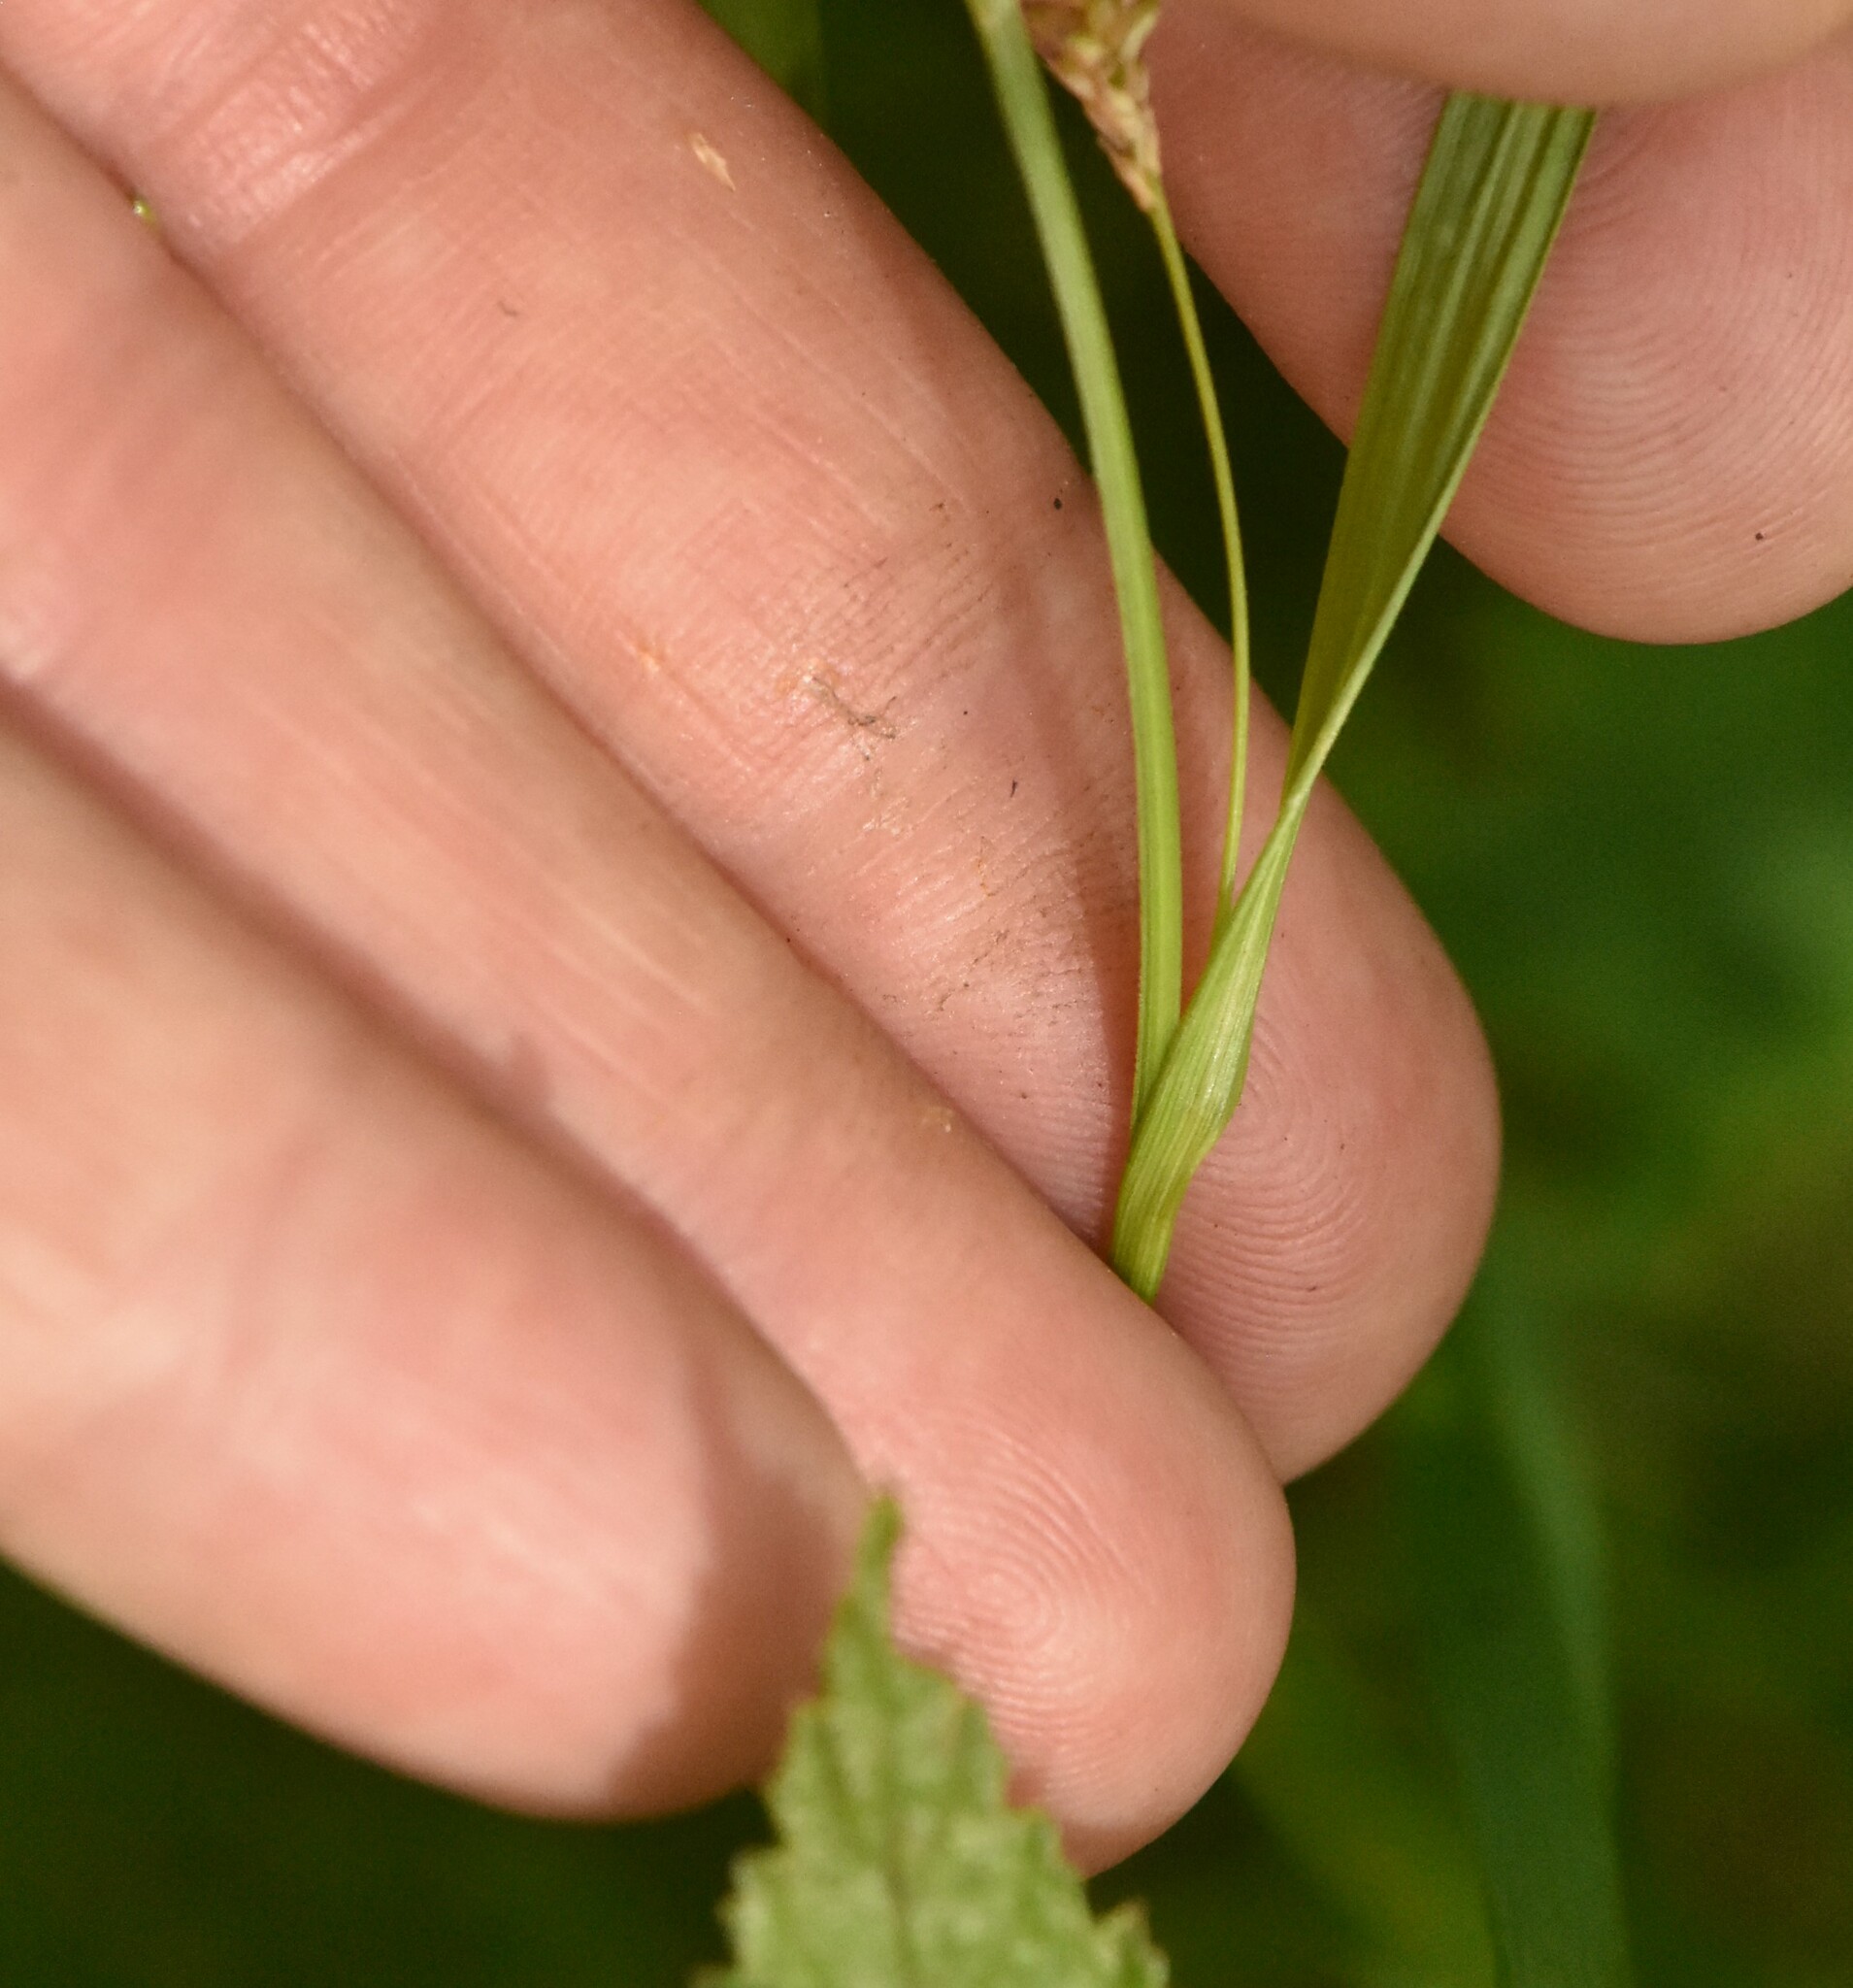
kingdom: Plantae
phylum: Tracheophyta
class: Liliopsida
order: Poales
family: Cyperaceae
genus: Carex
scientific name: Carex pallescens
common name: Pale sedge
